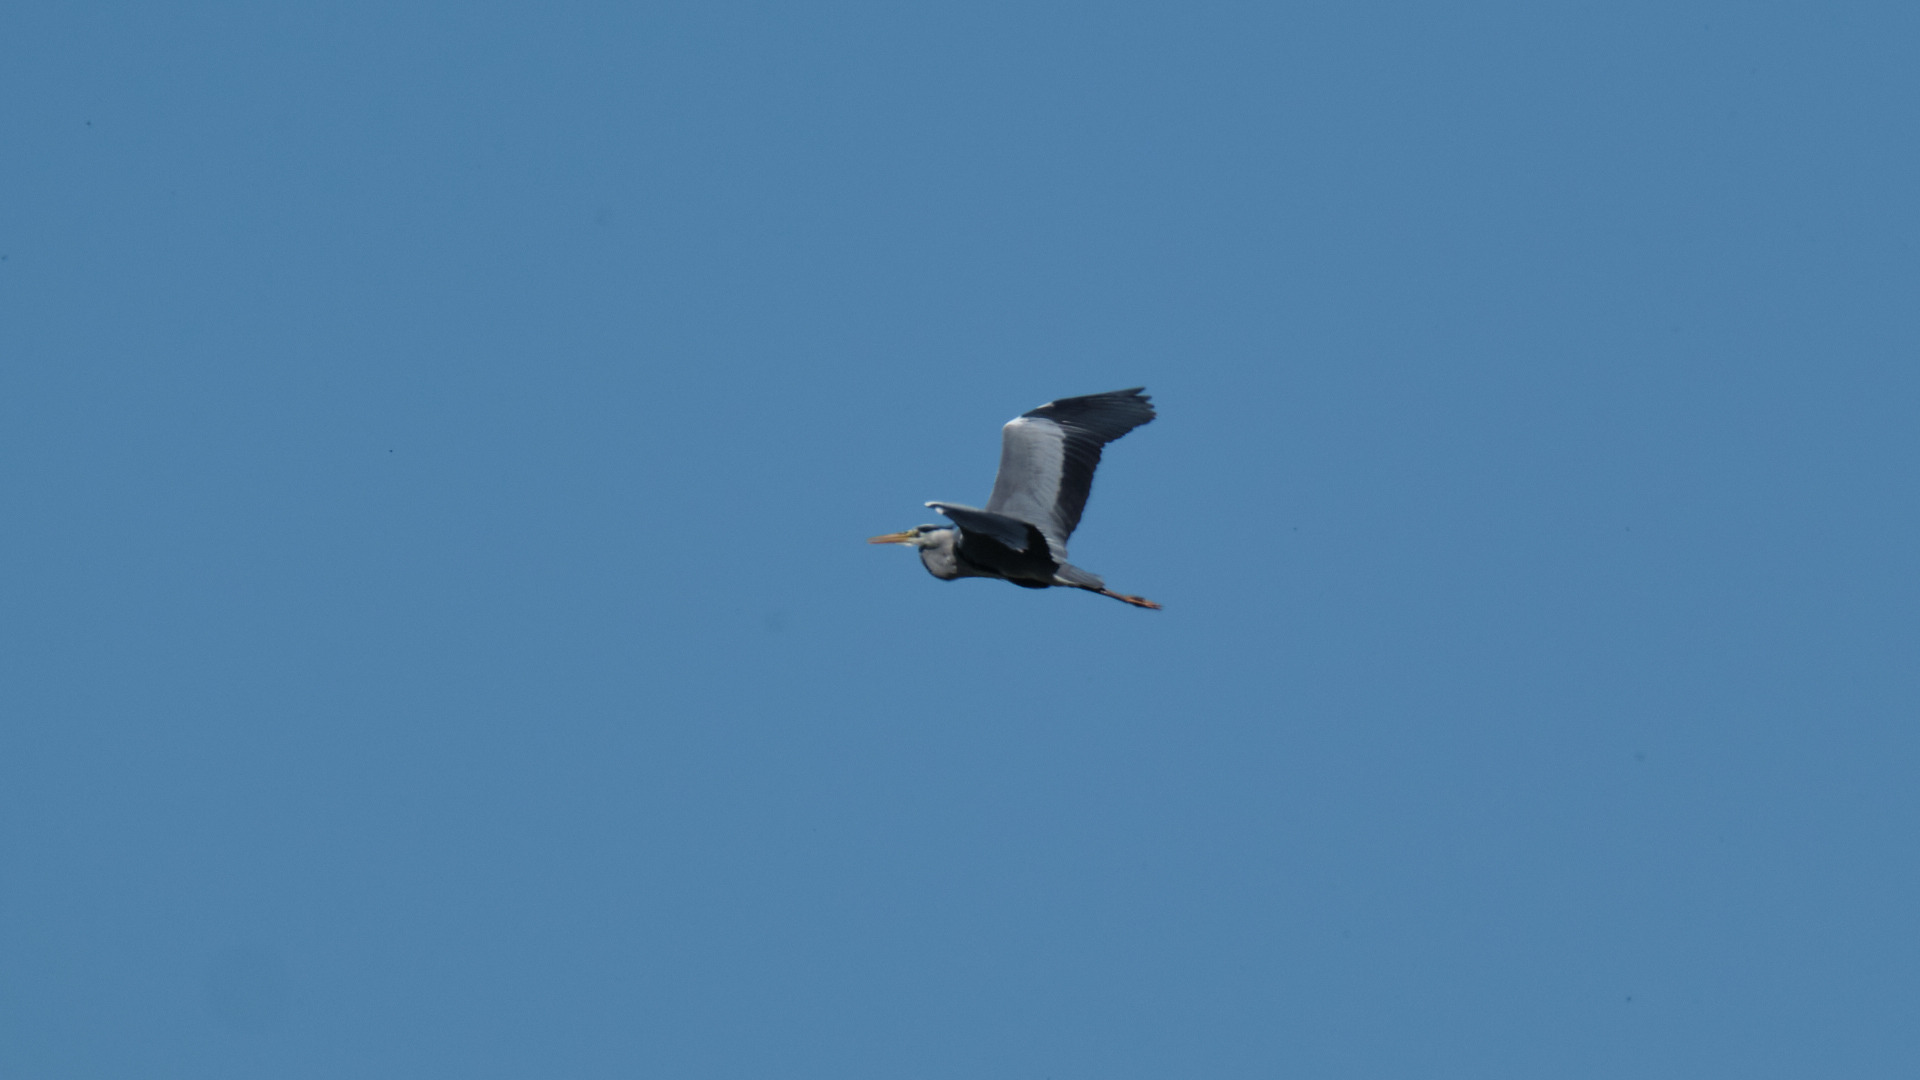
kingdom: Animalia
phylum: Chordata
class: Aves
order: Pelecaniformes
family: Ardeidae
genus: Ardea
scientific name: Ardea cinerea
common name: Grey heron
